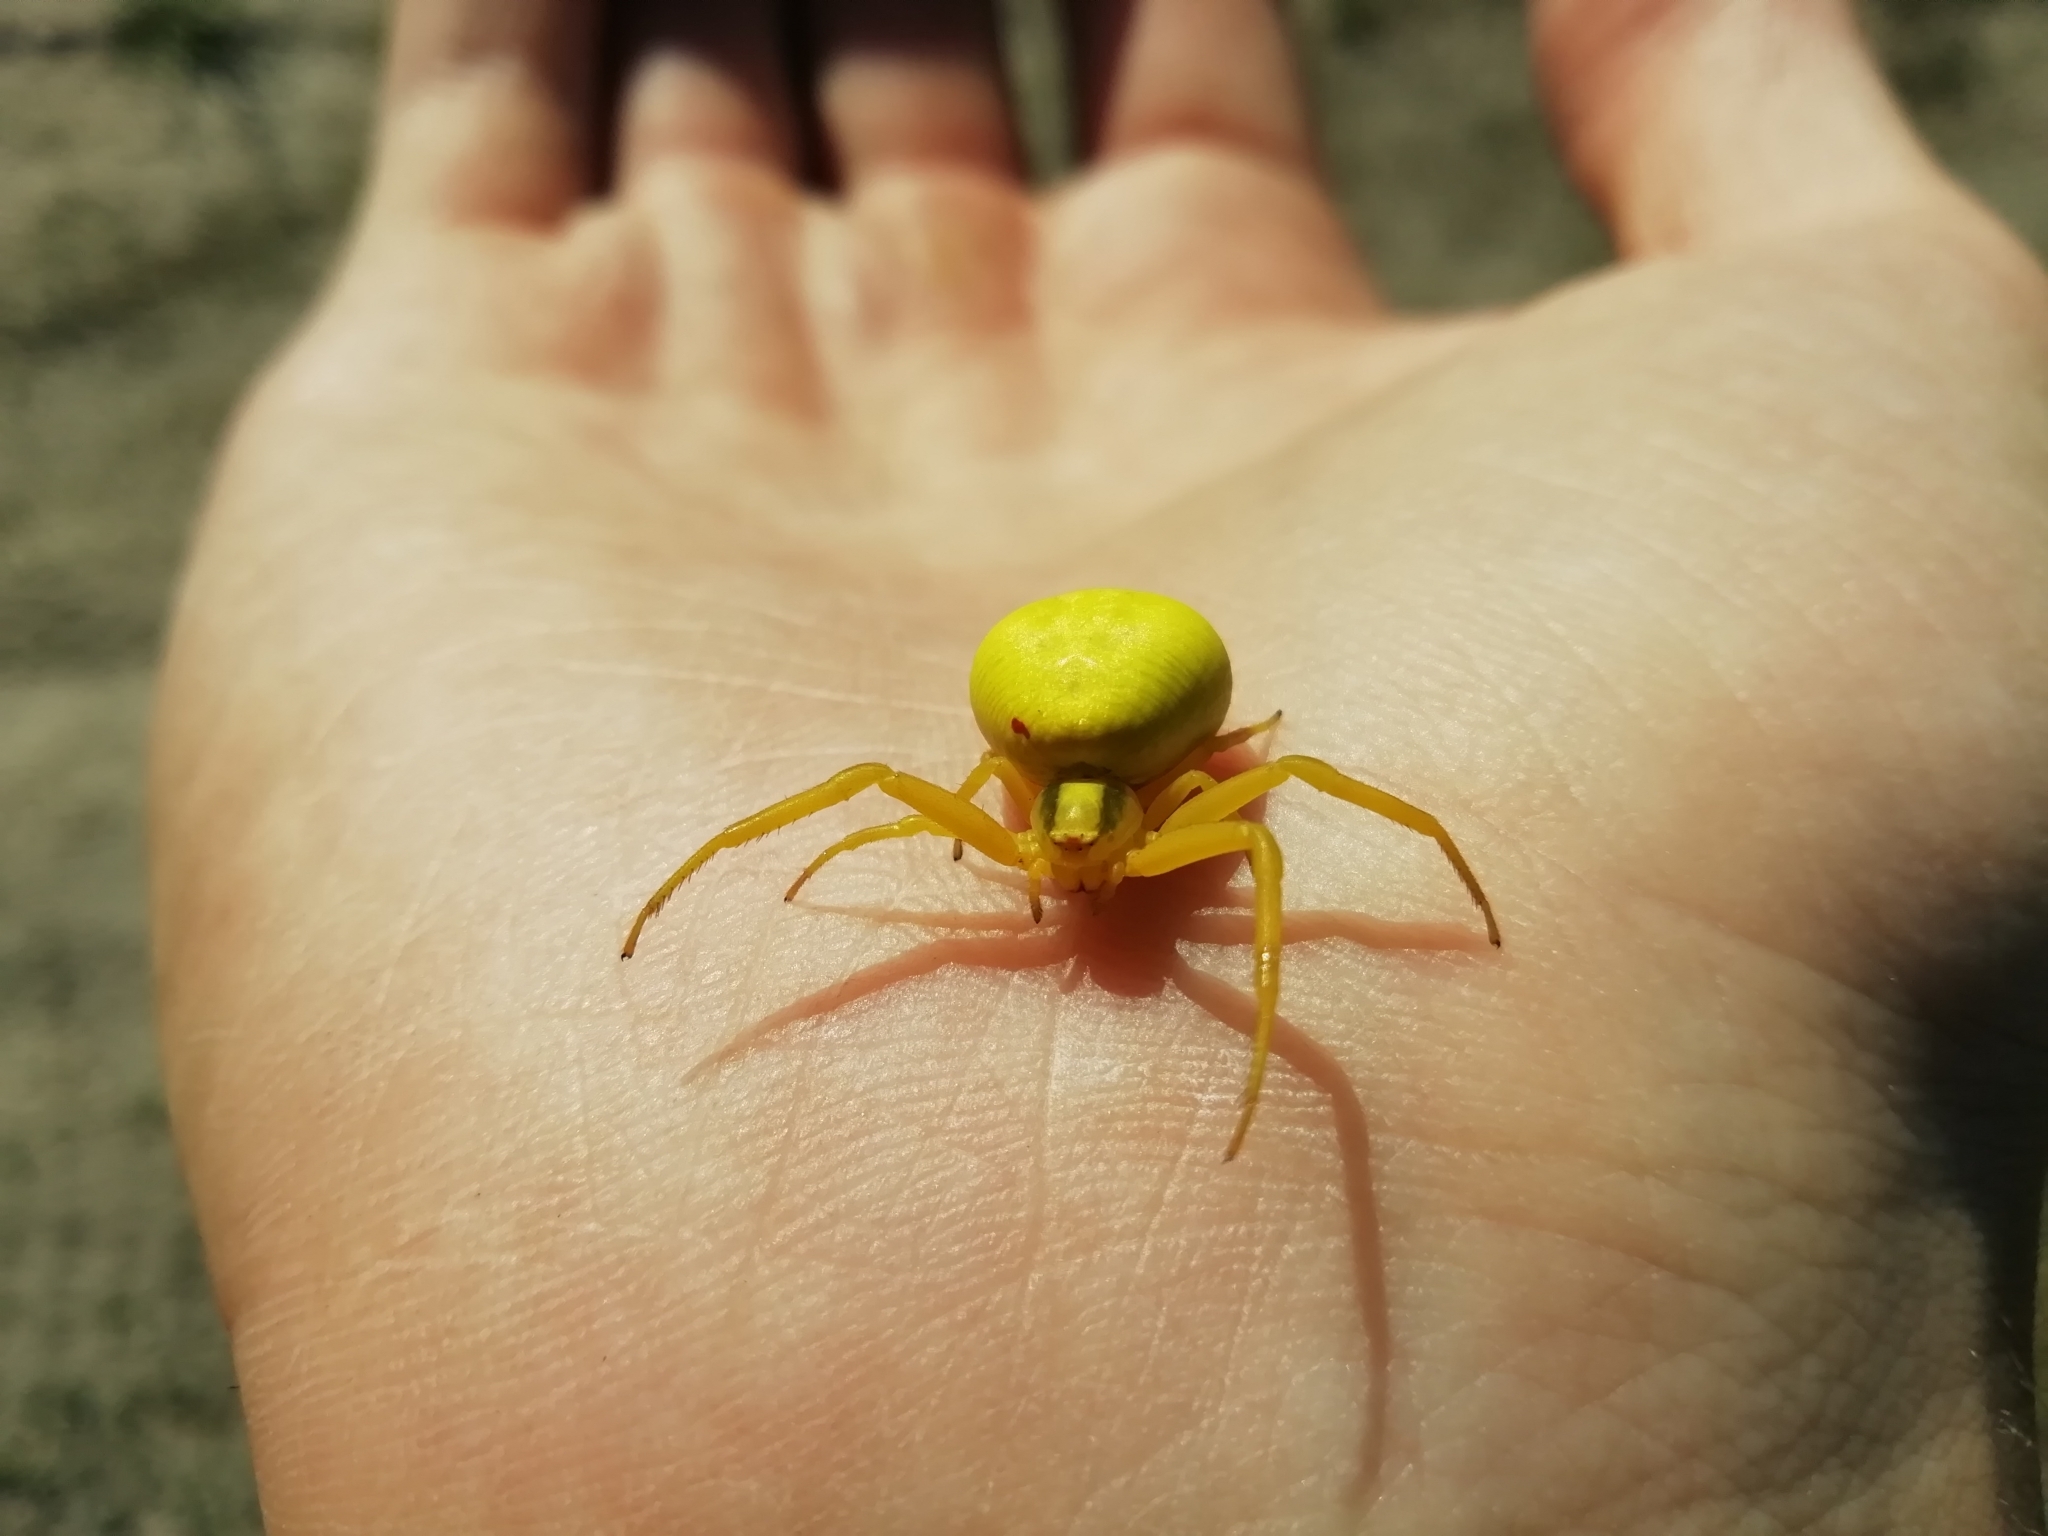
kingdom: Animalia
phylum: Arthropoda
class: Arachnida
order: Araneae
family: Thomisidae
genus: Misumena
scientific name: Misumena vatia
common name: Goldenrod crab spider
